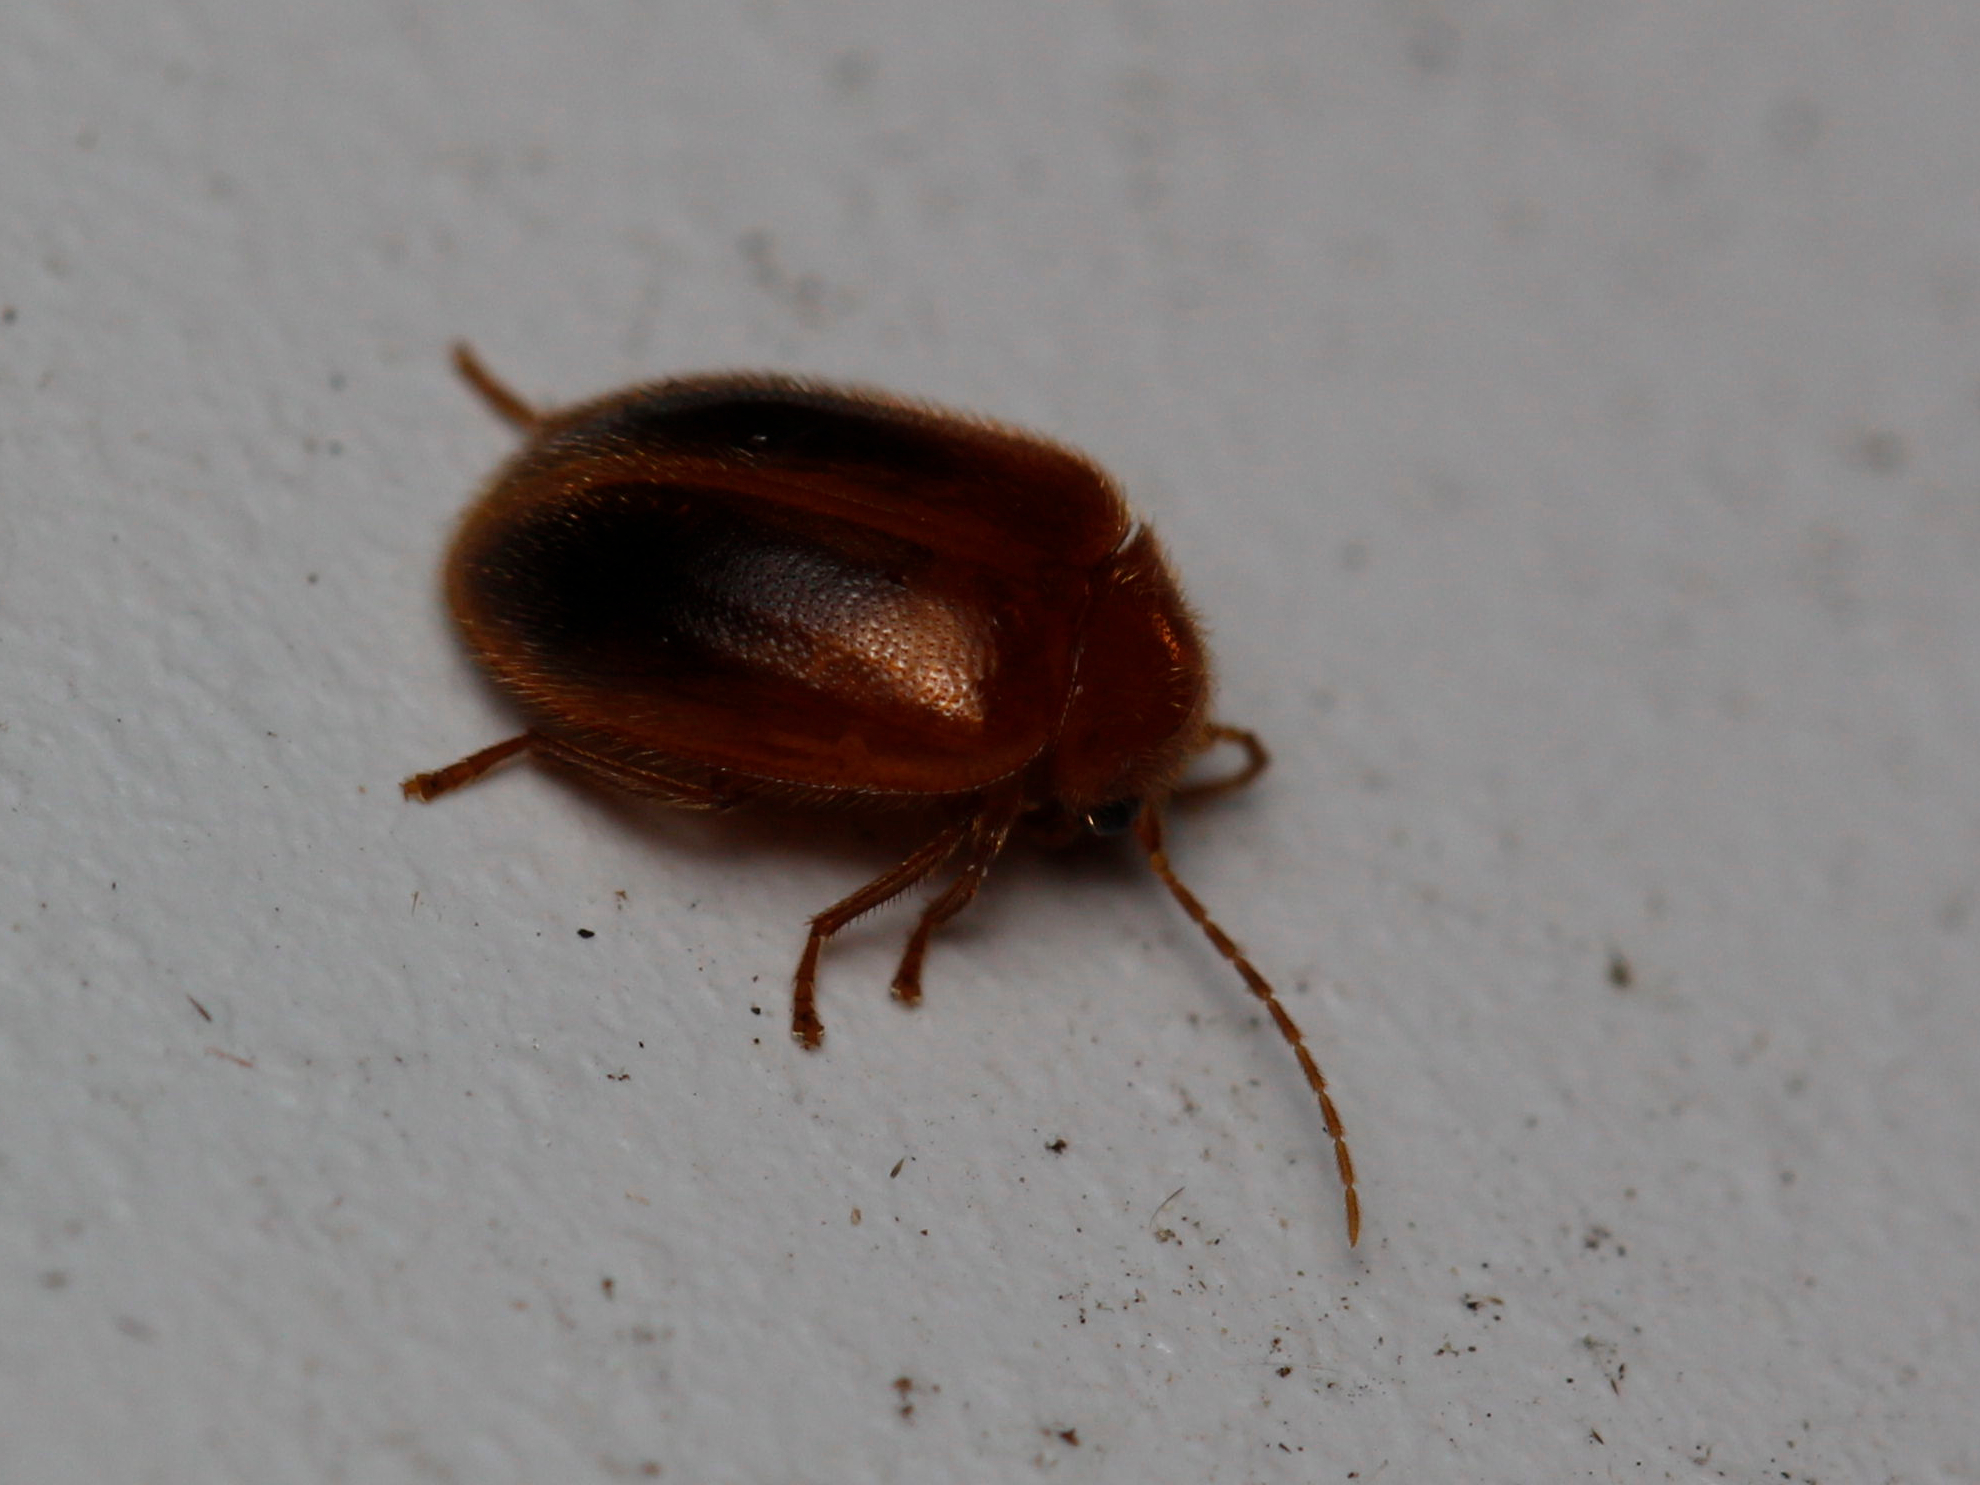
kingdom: Animalia
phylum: Arthropoda
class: Insecta
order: Coleoptera
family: Scirtidae
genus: Prionocyphon
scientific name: Prionocyphon limbatus
